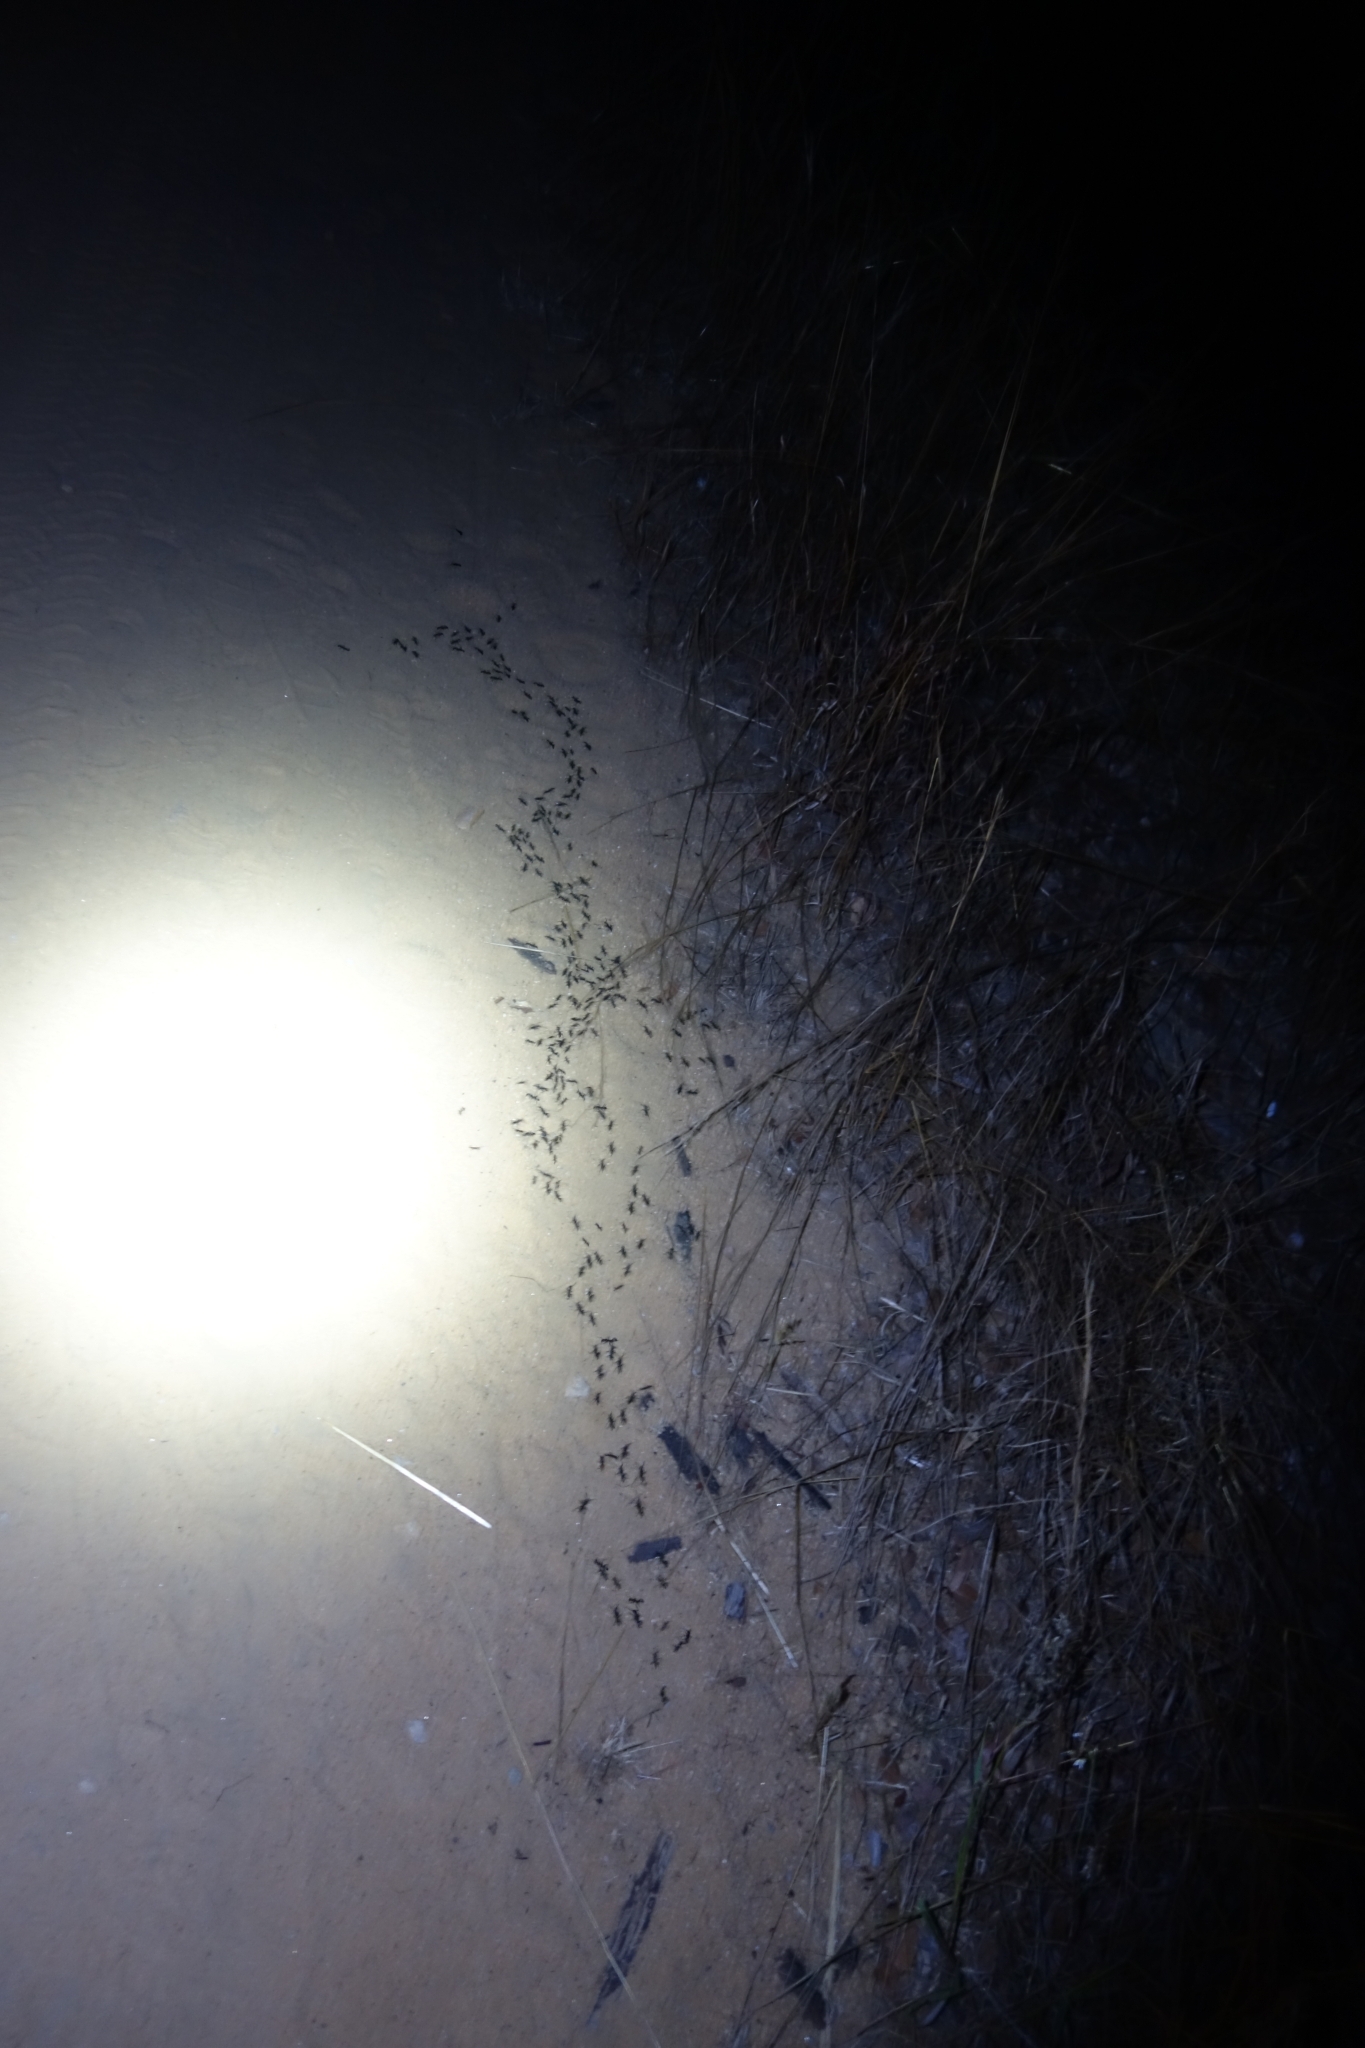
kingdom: Animalia
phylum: Arthropoda
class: Insecta
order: Hymenoptera
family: Formicidae
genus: Megaponera
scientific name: Megaponera analis
